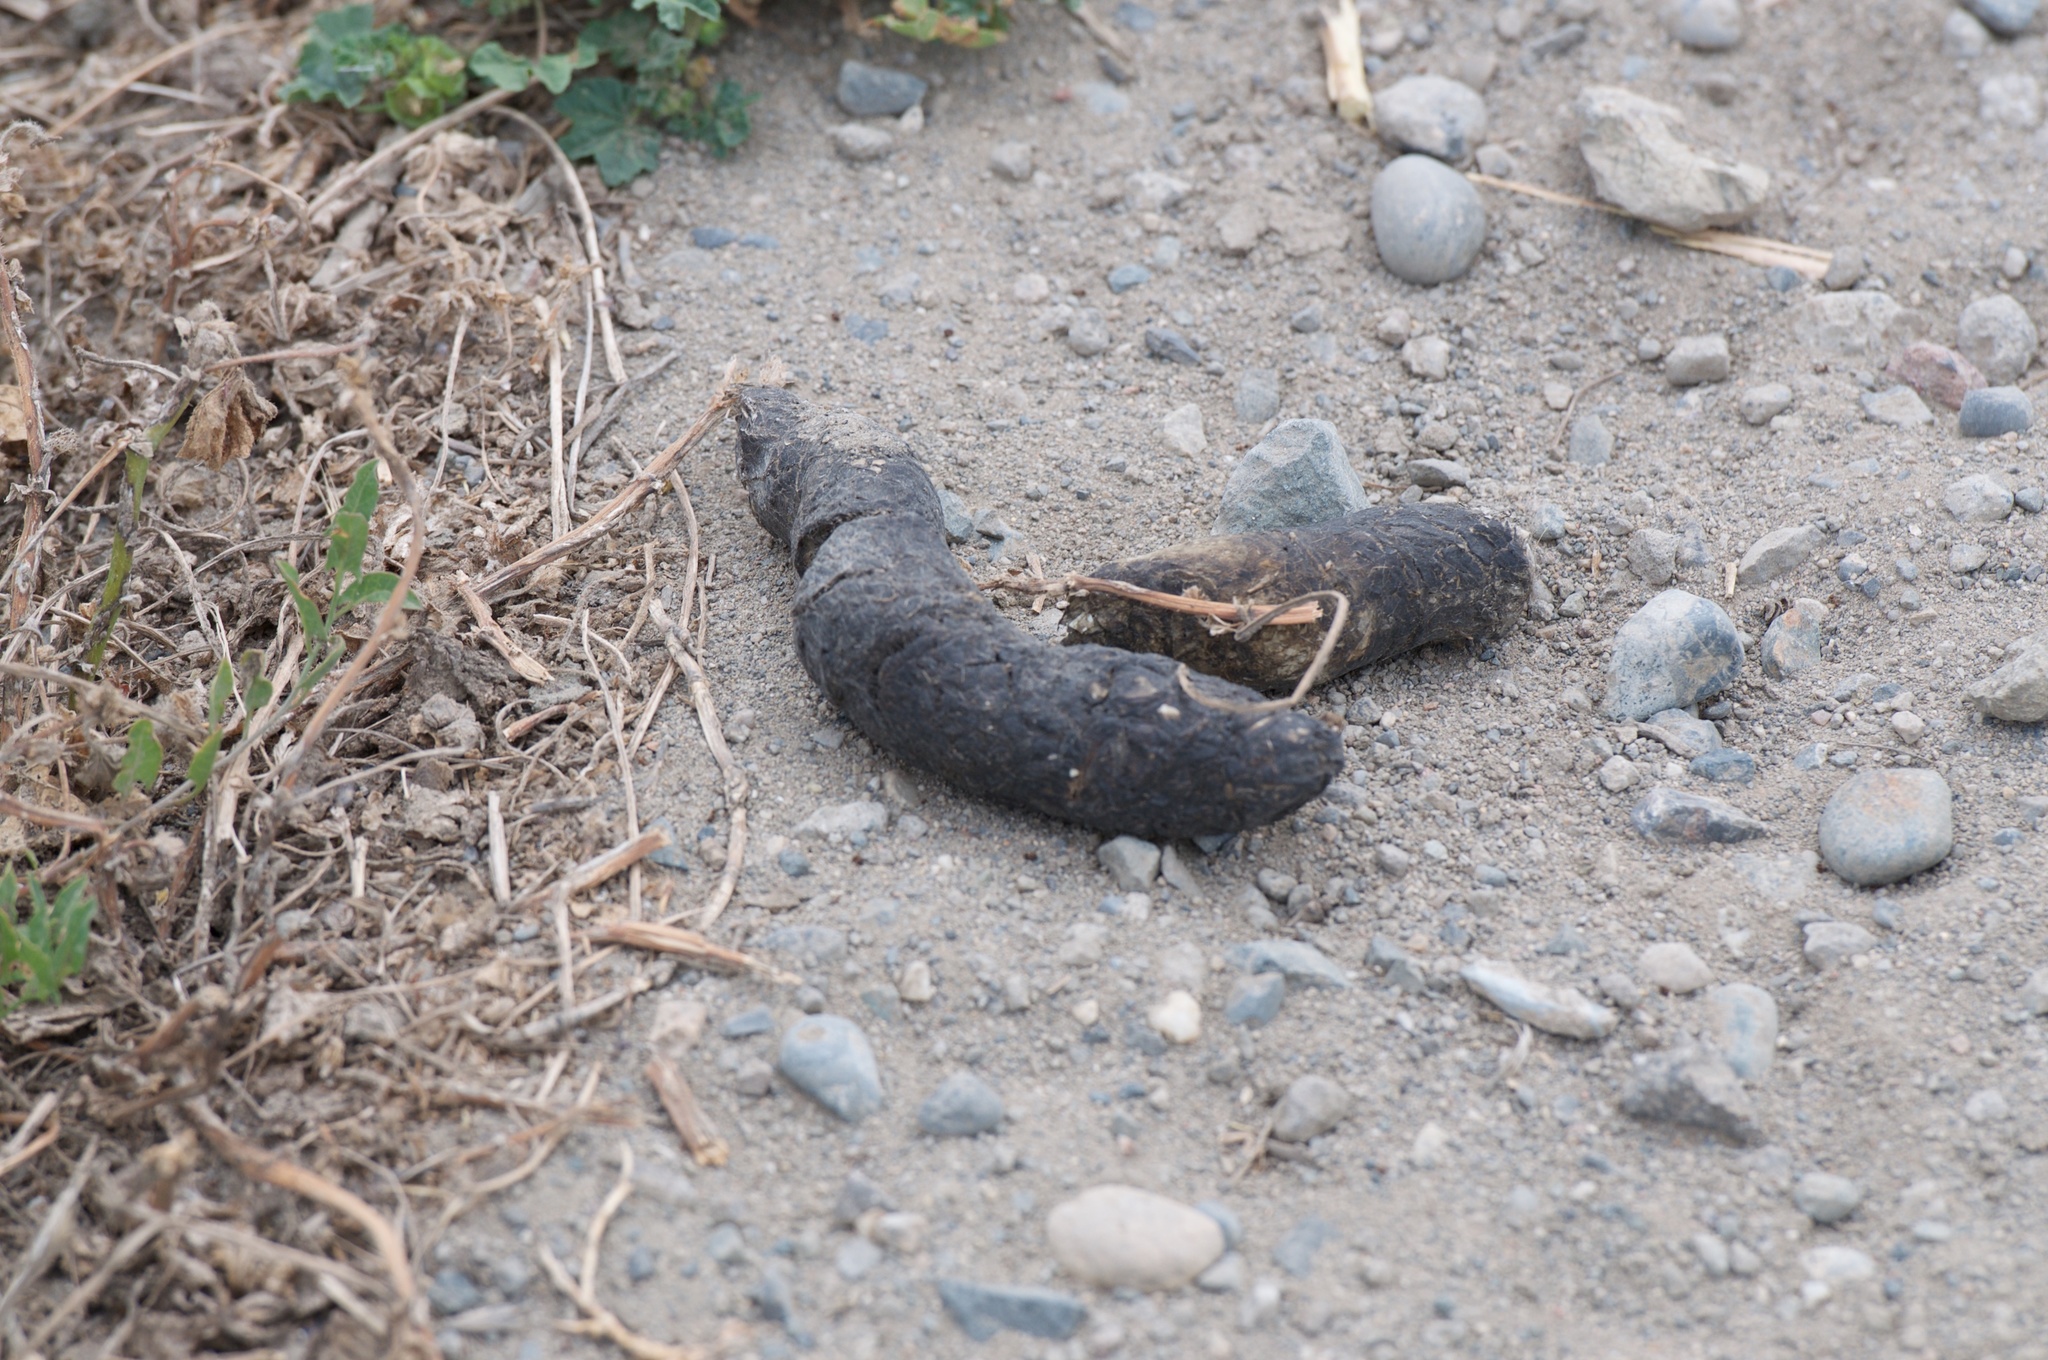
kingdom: Animalia
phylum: Chordata
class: Mammalia
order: Carnivora
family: Canidae
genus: Canis
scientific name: Canis latrans
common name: Coyote
